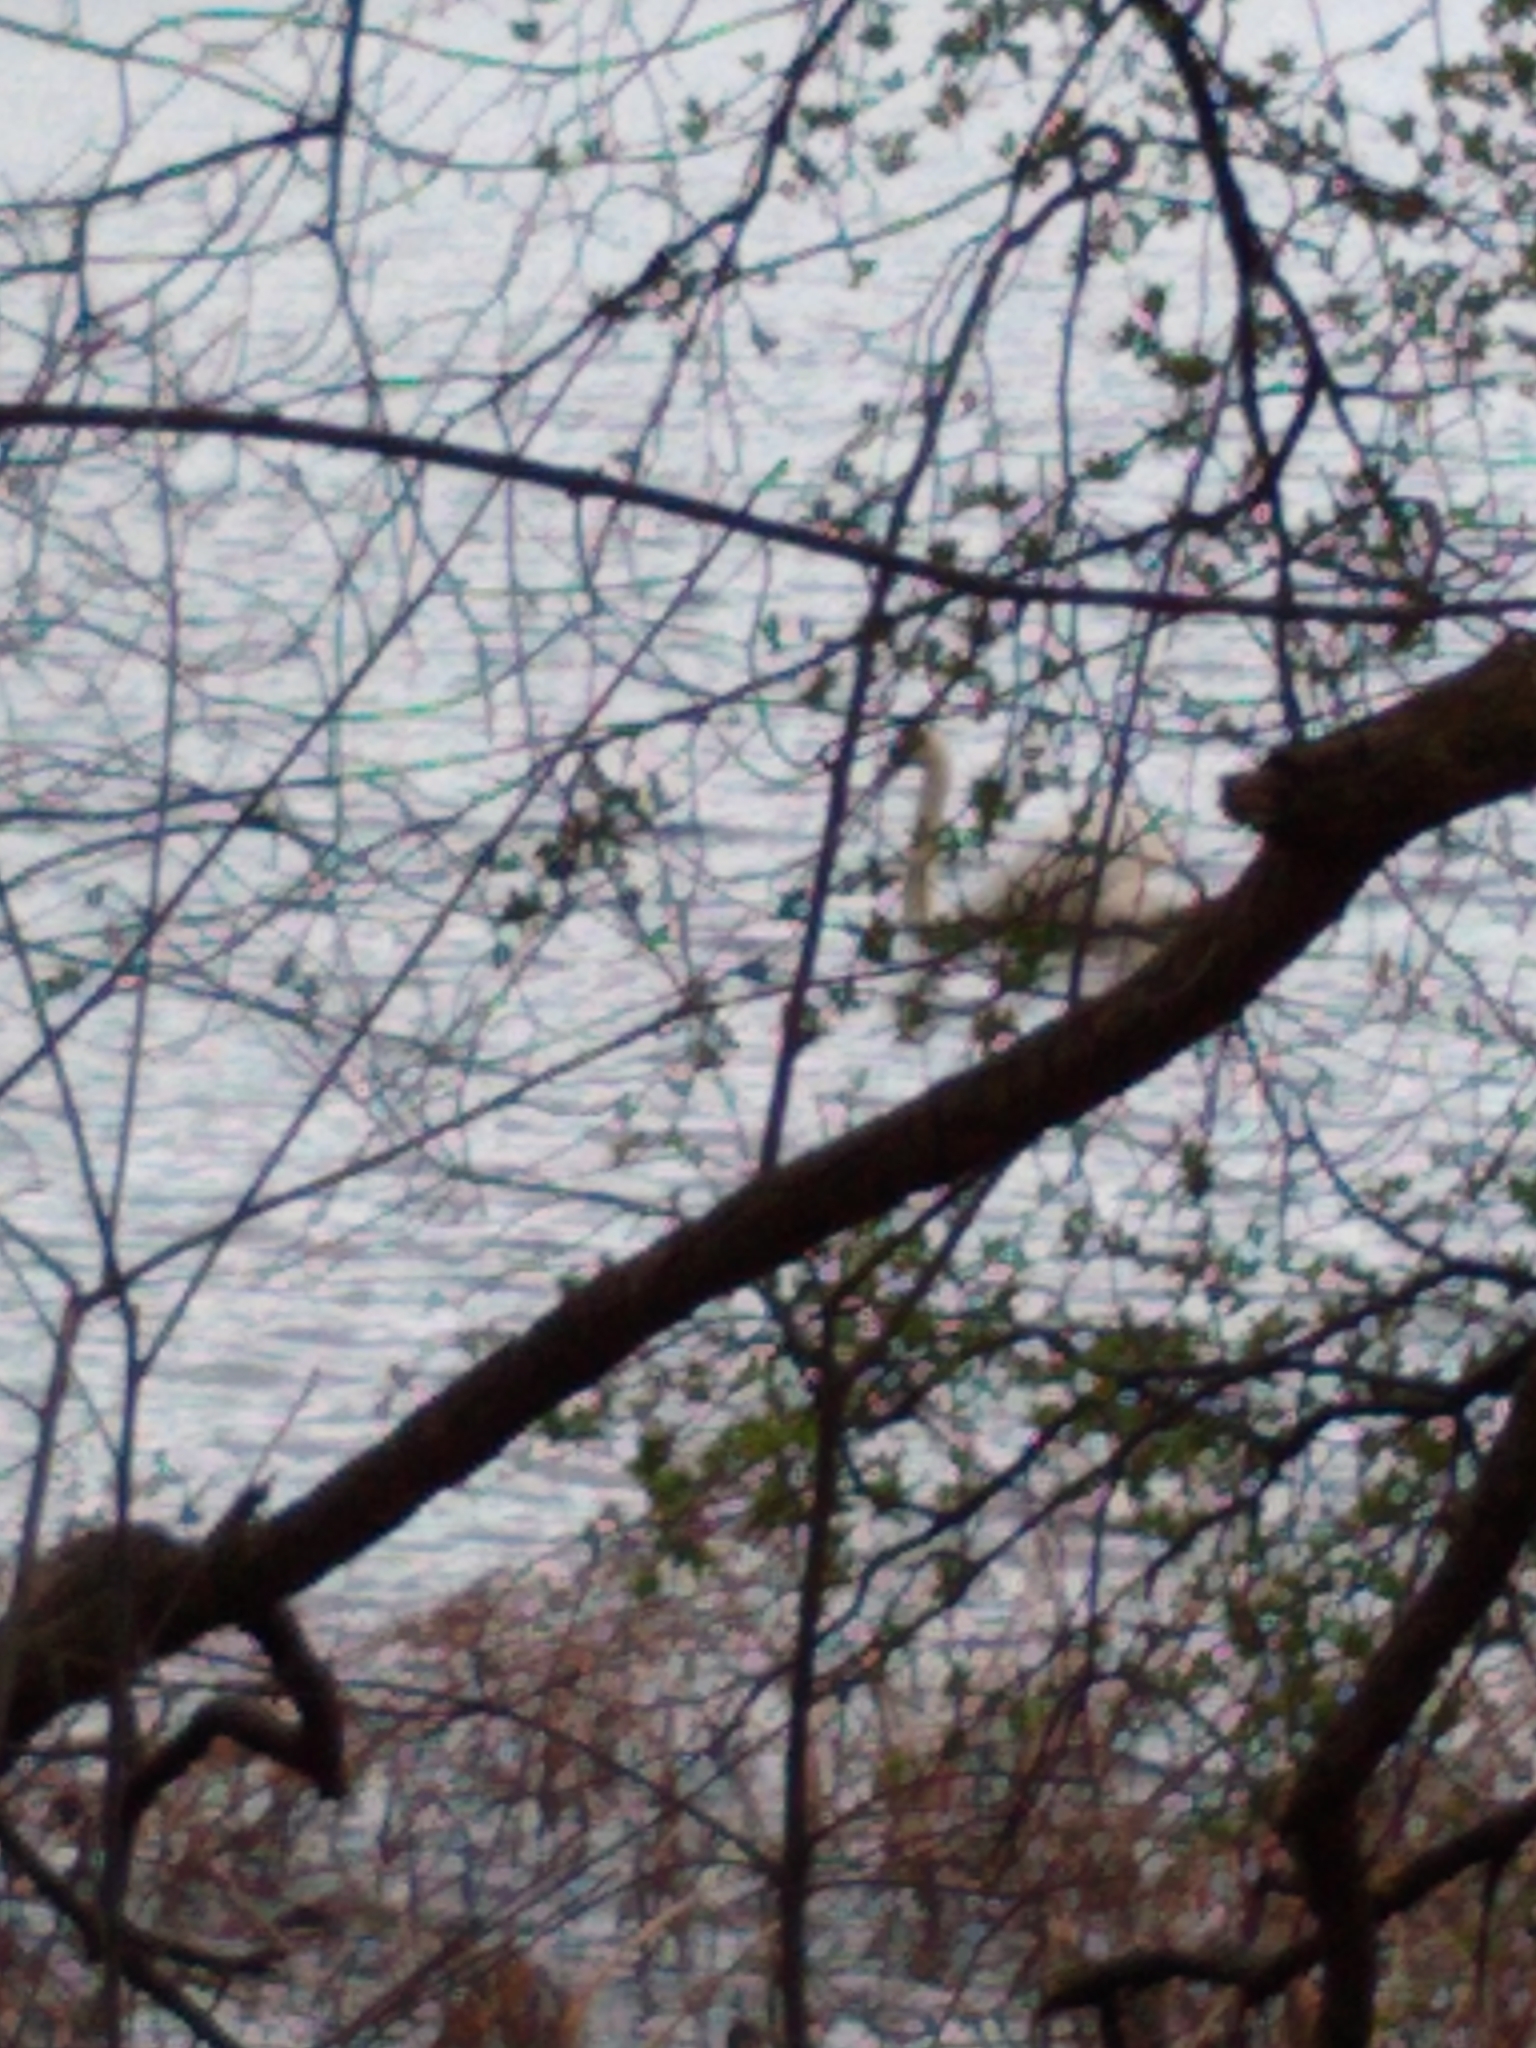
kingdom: Animalia
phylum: Chordata
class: Aves
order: Anseriformes
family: Anatidae
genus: Cygnus
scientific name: Cygnus olor
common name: Mute swan
